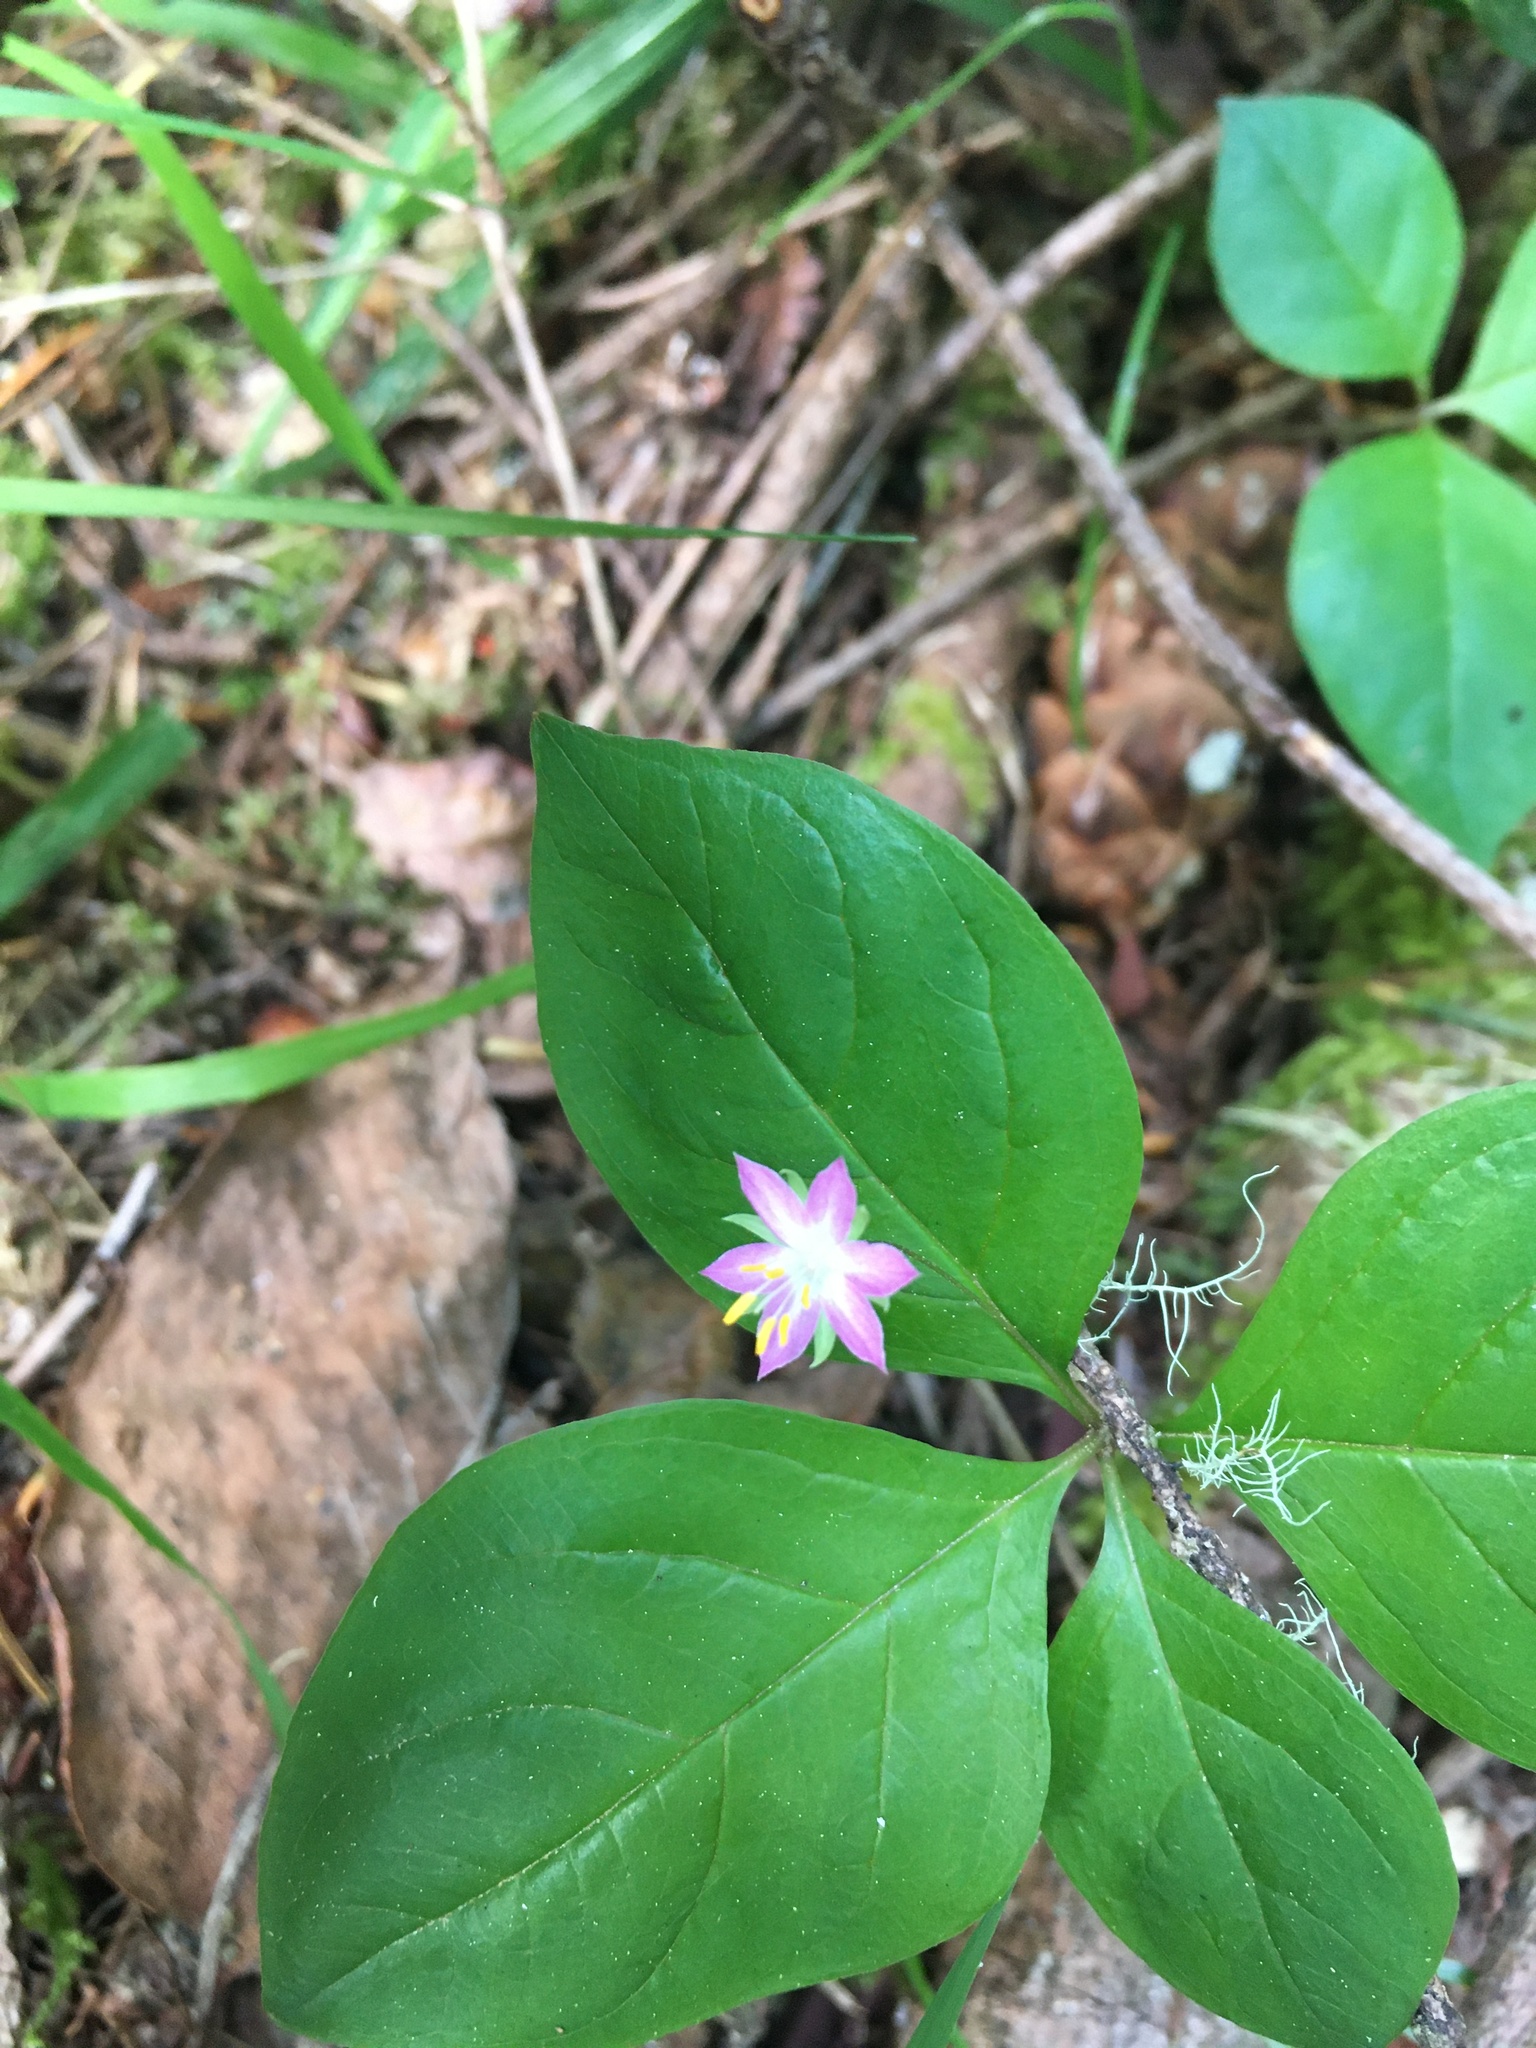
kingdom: Plantae
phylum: Tracheophyta
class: Magnoliopsida
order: Ericales
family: Primulaceae
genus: Lysimachia
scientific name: Lysimachia latifolia
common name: Pacific starflower
